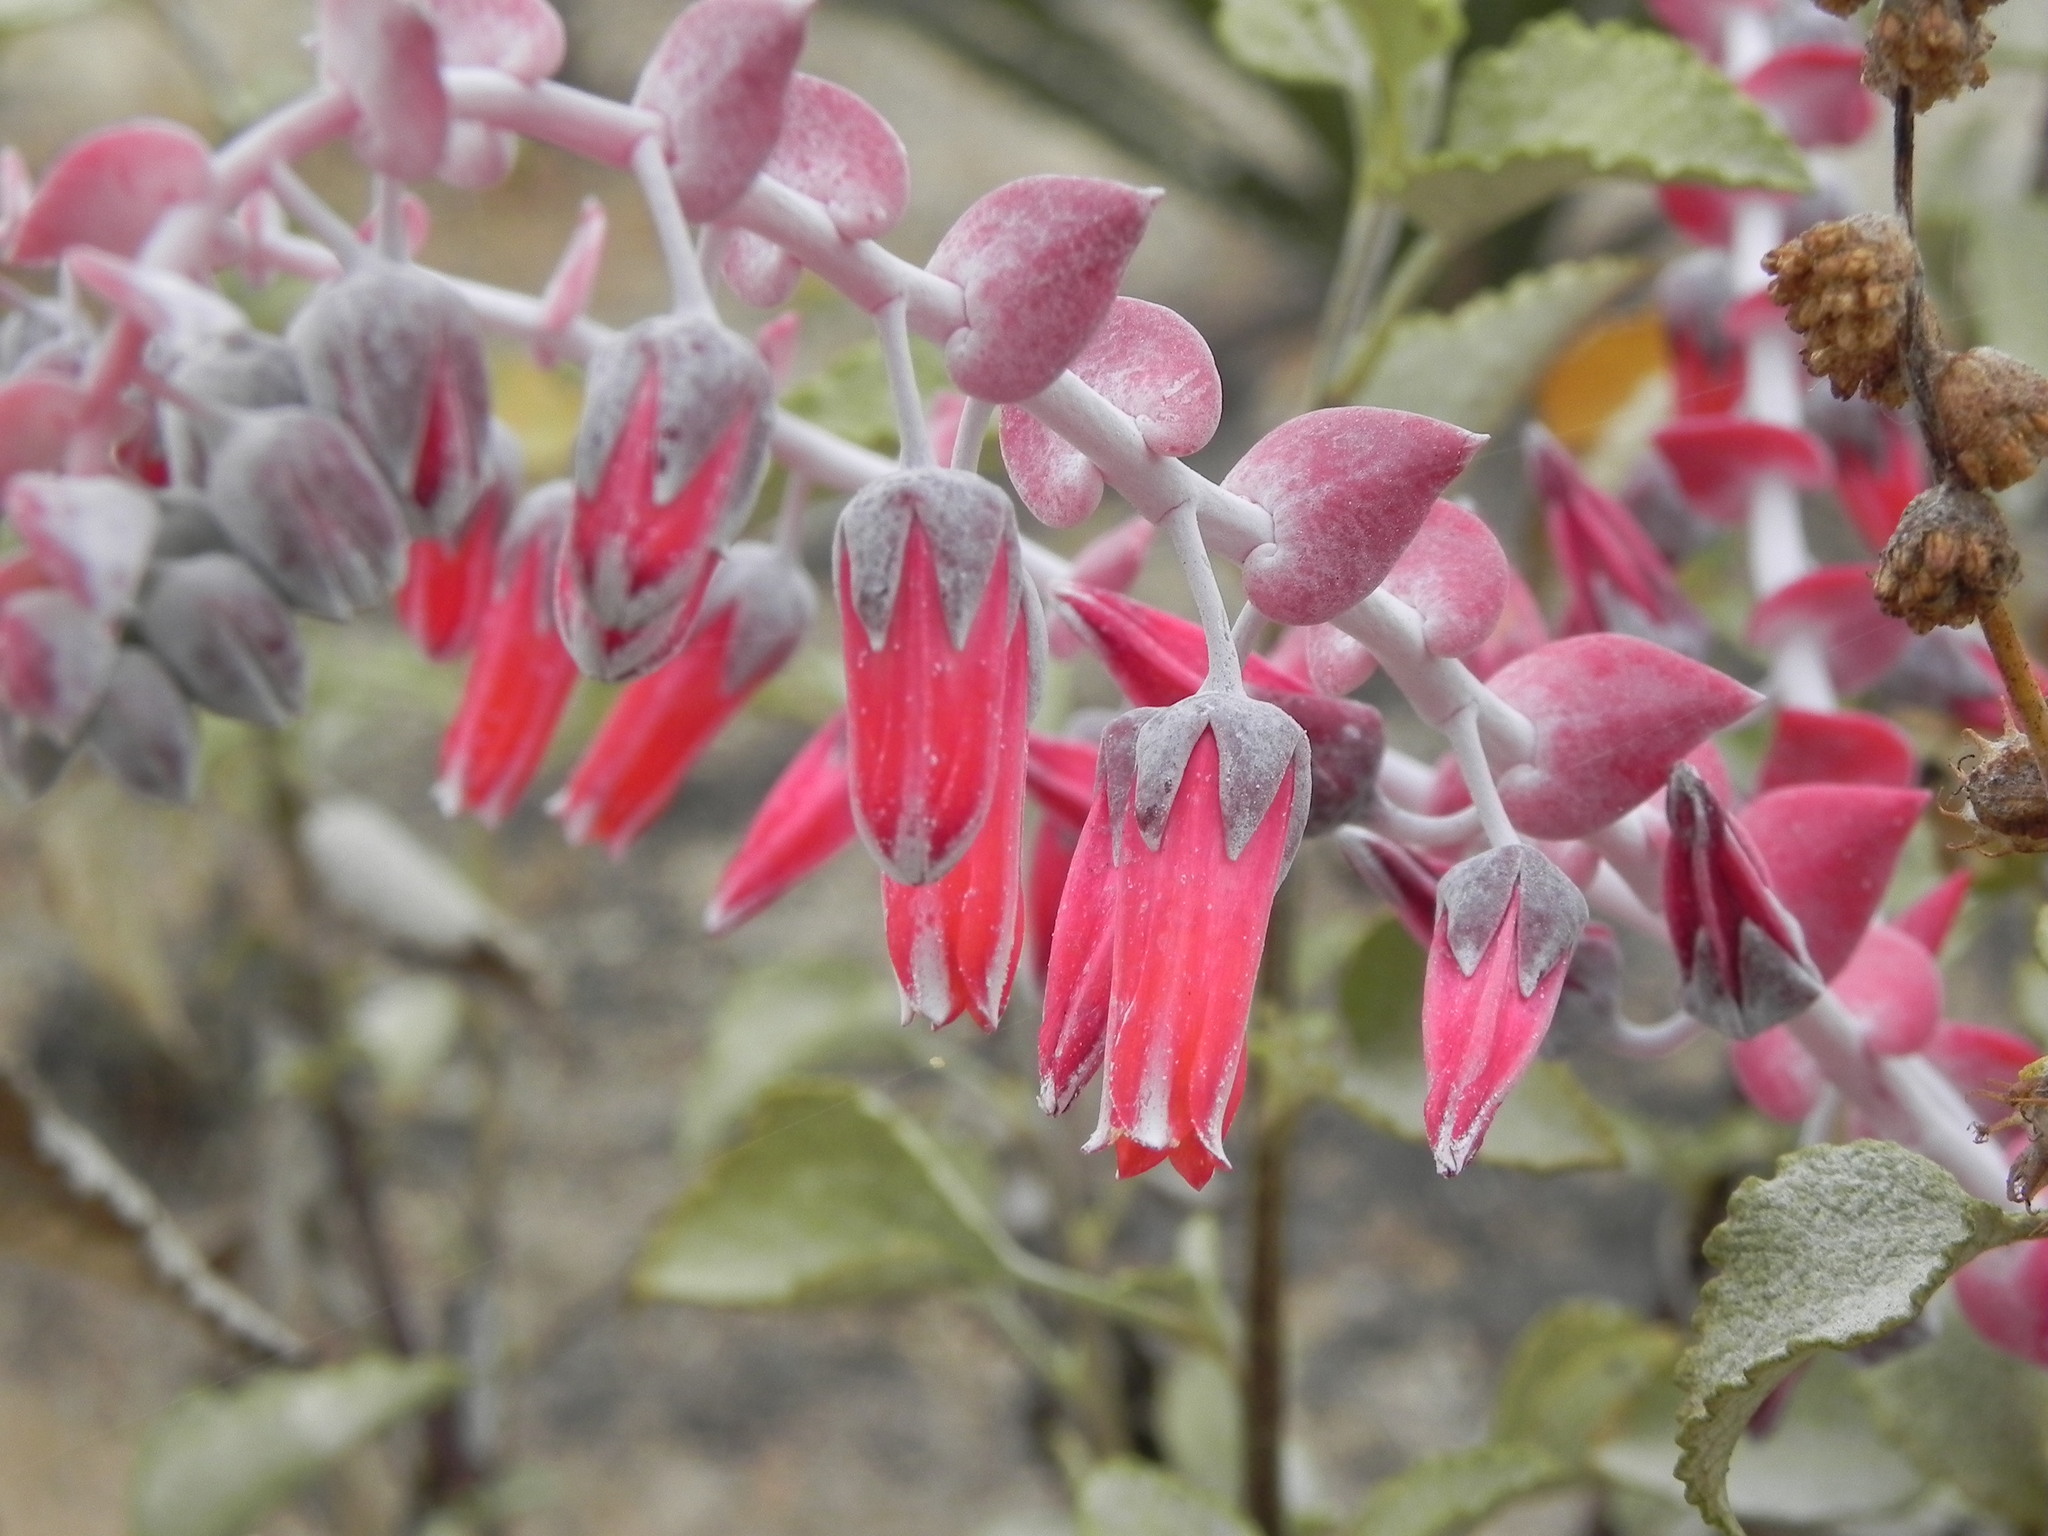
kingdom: Plantae
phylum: Tracheophyta
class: Magnoliopsida
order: Saxifragales
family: Crassulaceae
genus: Dudleya
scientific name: Dudleya pulverulenta
